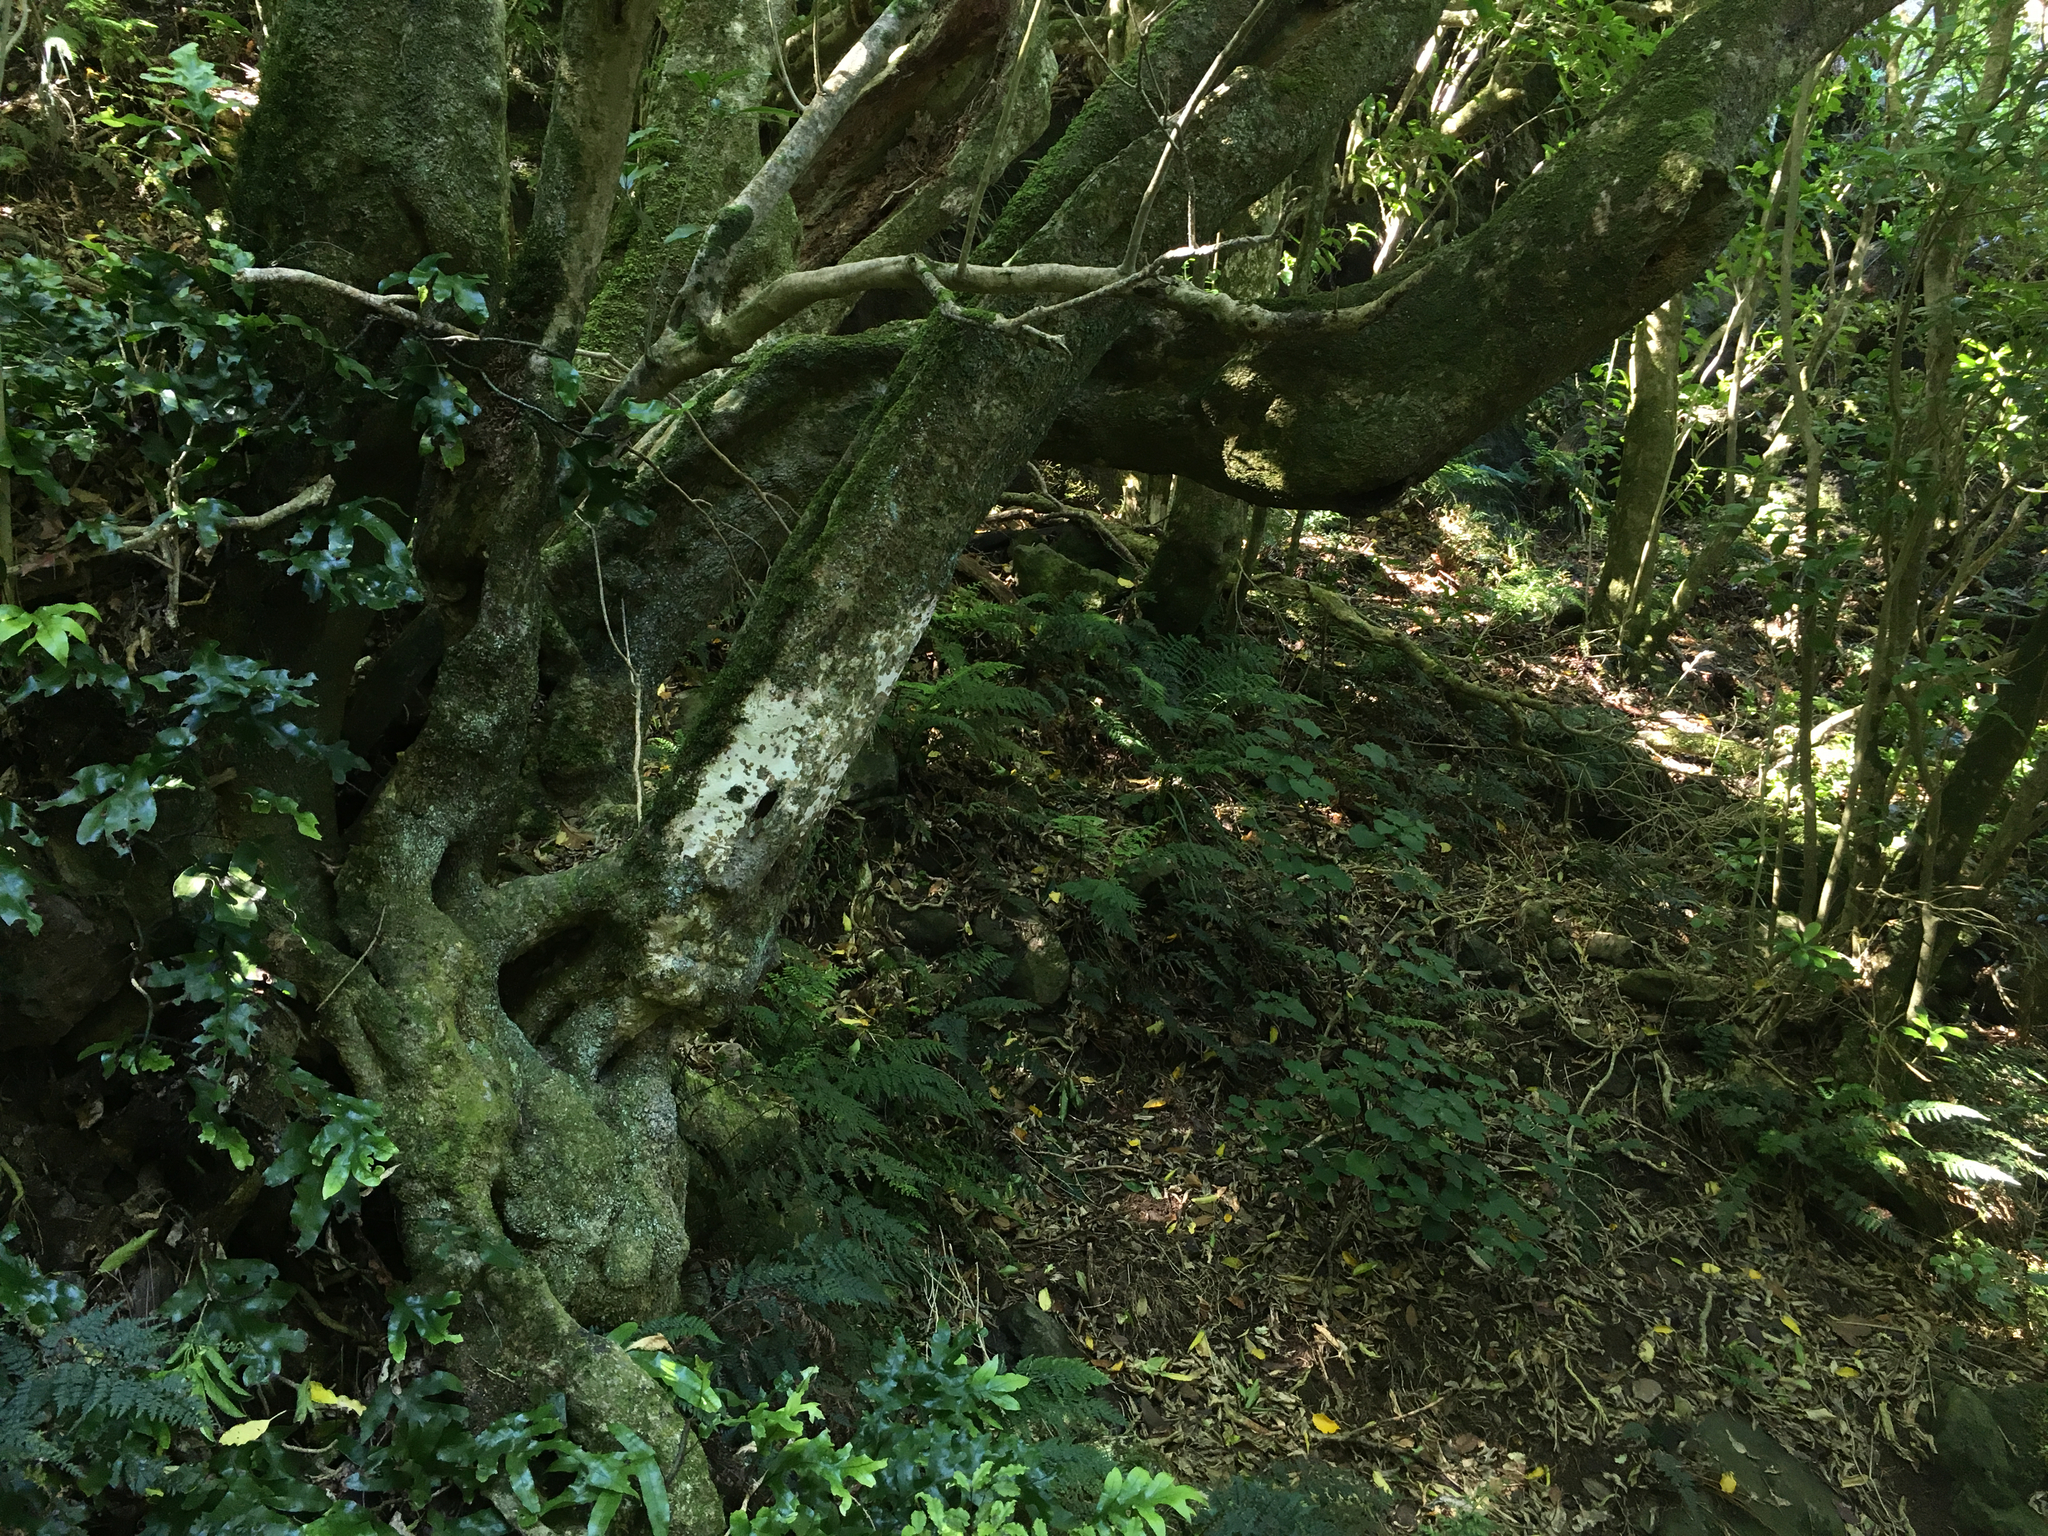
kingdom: Plantae
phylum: Tracheophyta
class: Magnoliopsida
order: Malpighiales
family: Violaceae
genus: Melicytus
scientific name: Melicytus ramiflorus
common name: Mahoe
